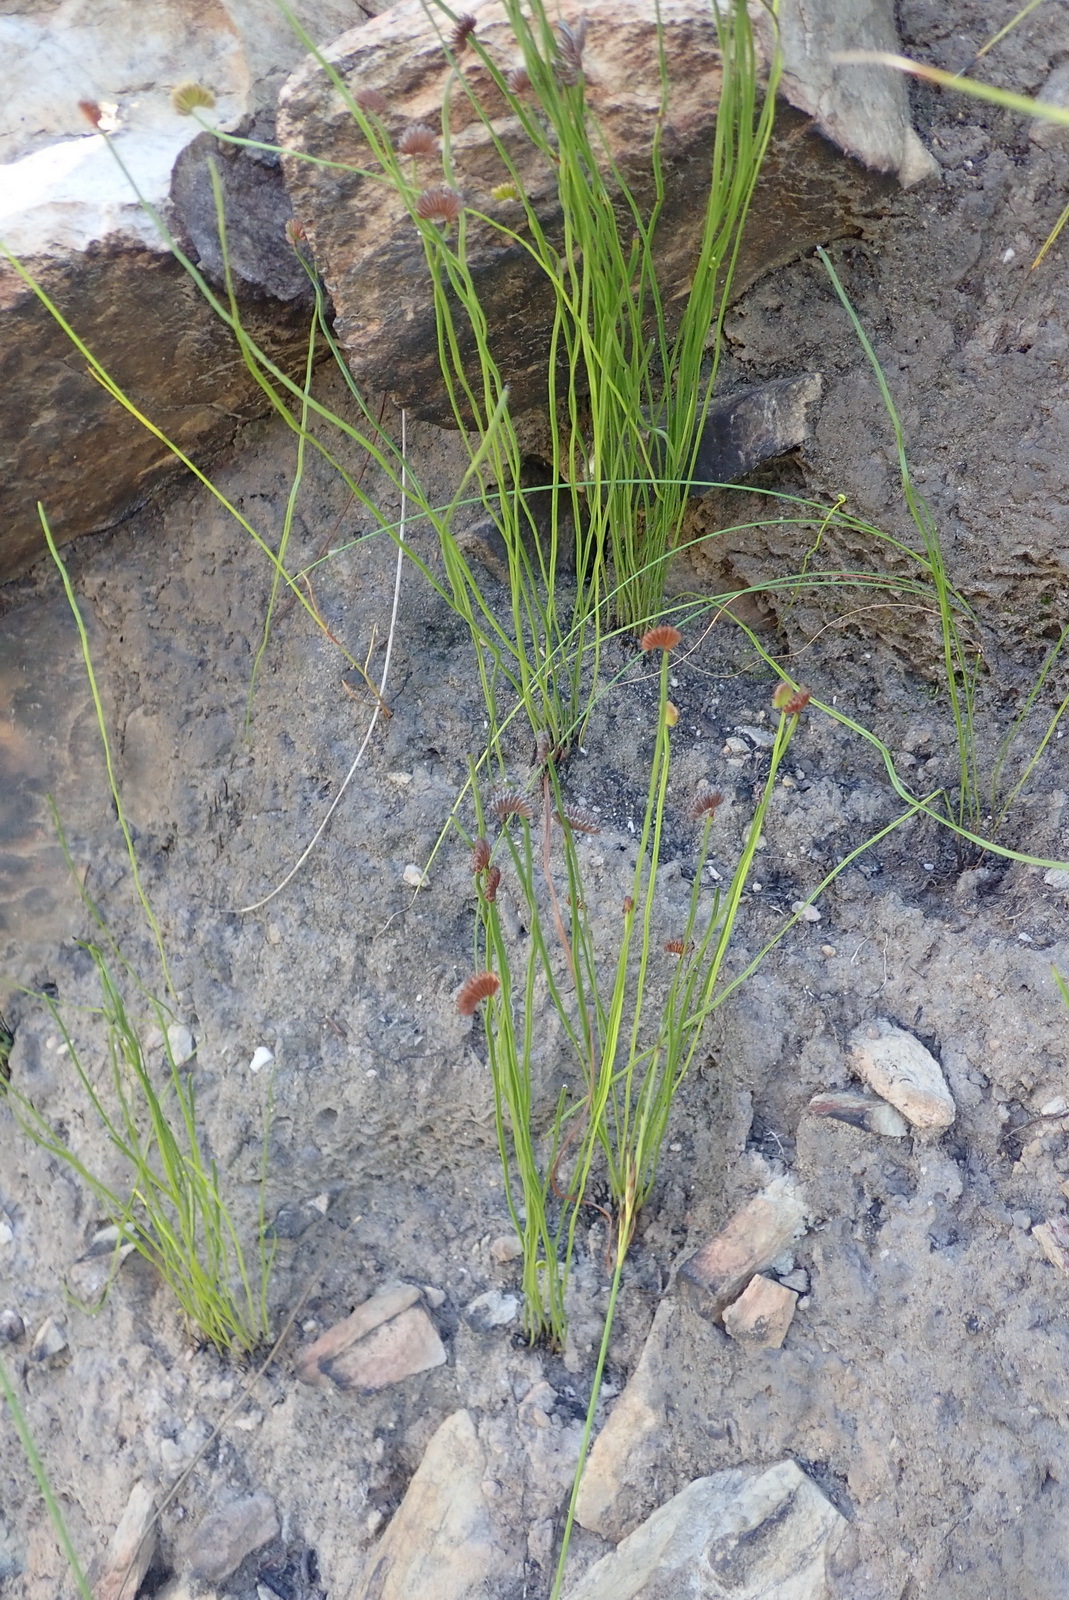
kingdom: Plantae
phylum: Tracheophyta
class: Polypodiopsida
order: Schizaeales
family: Schizaeaceae
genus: Schizaea
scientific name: Schizaea pectinata
